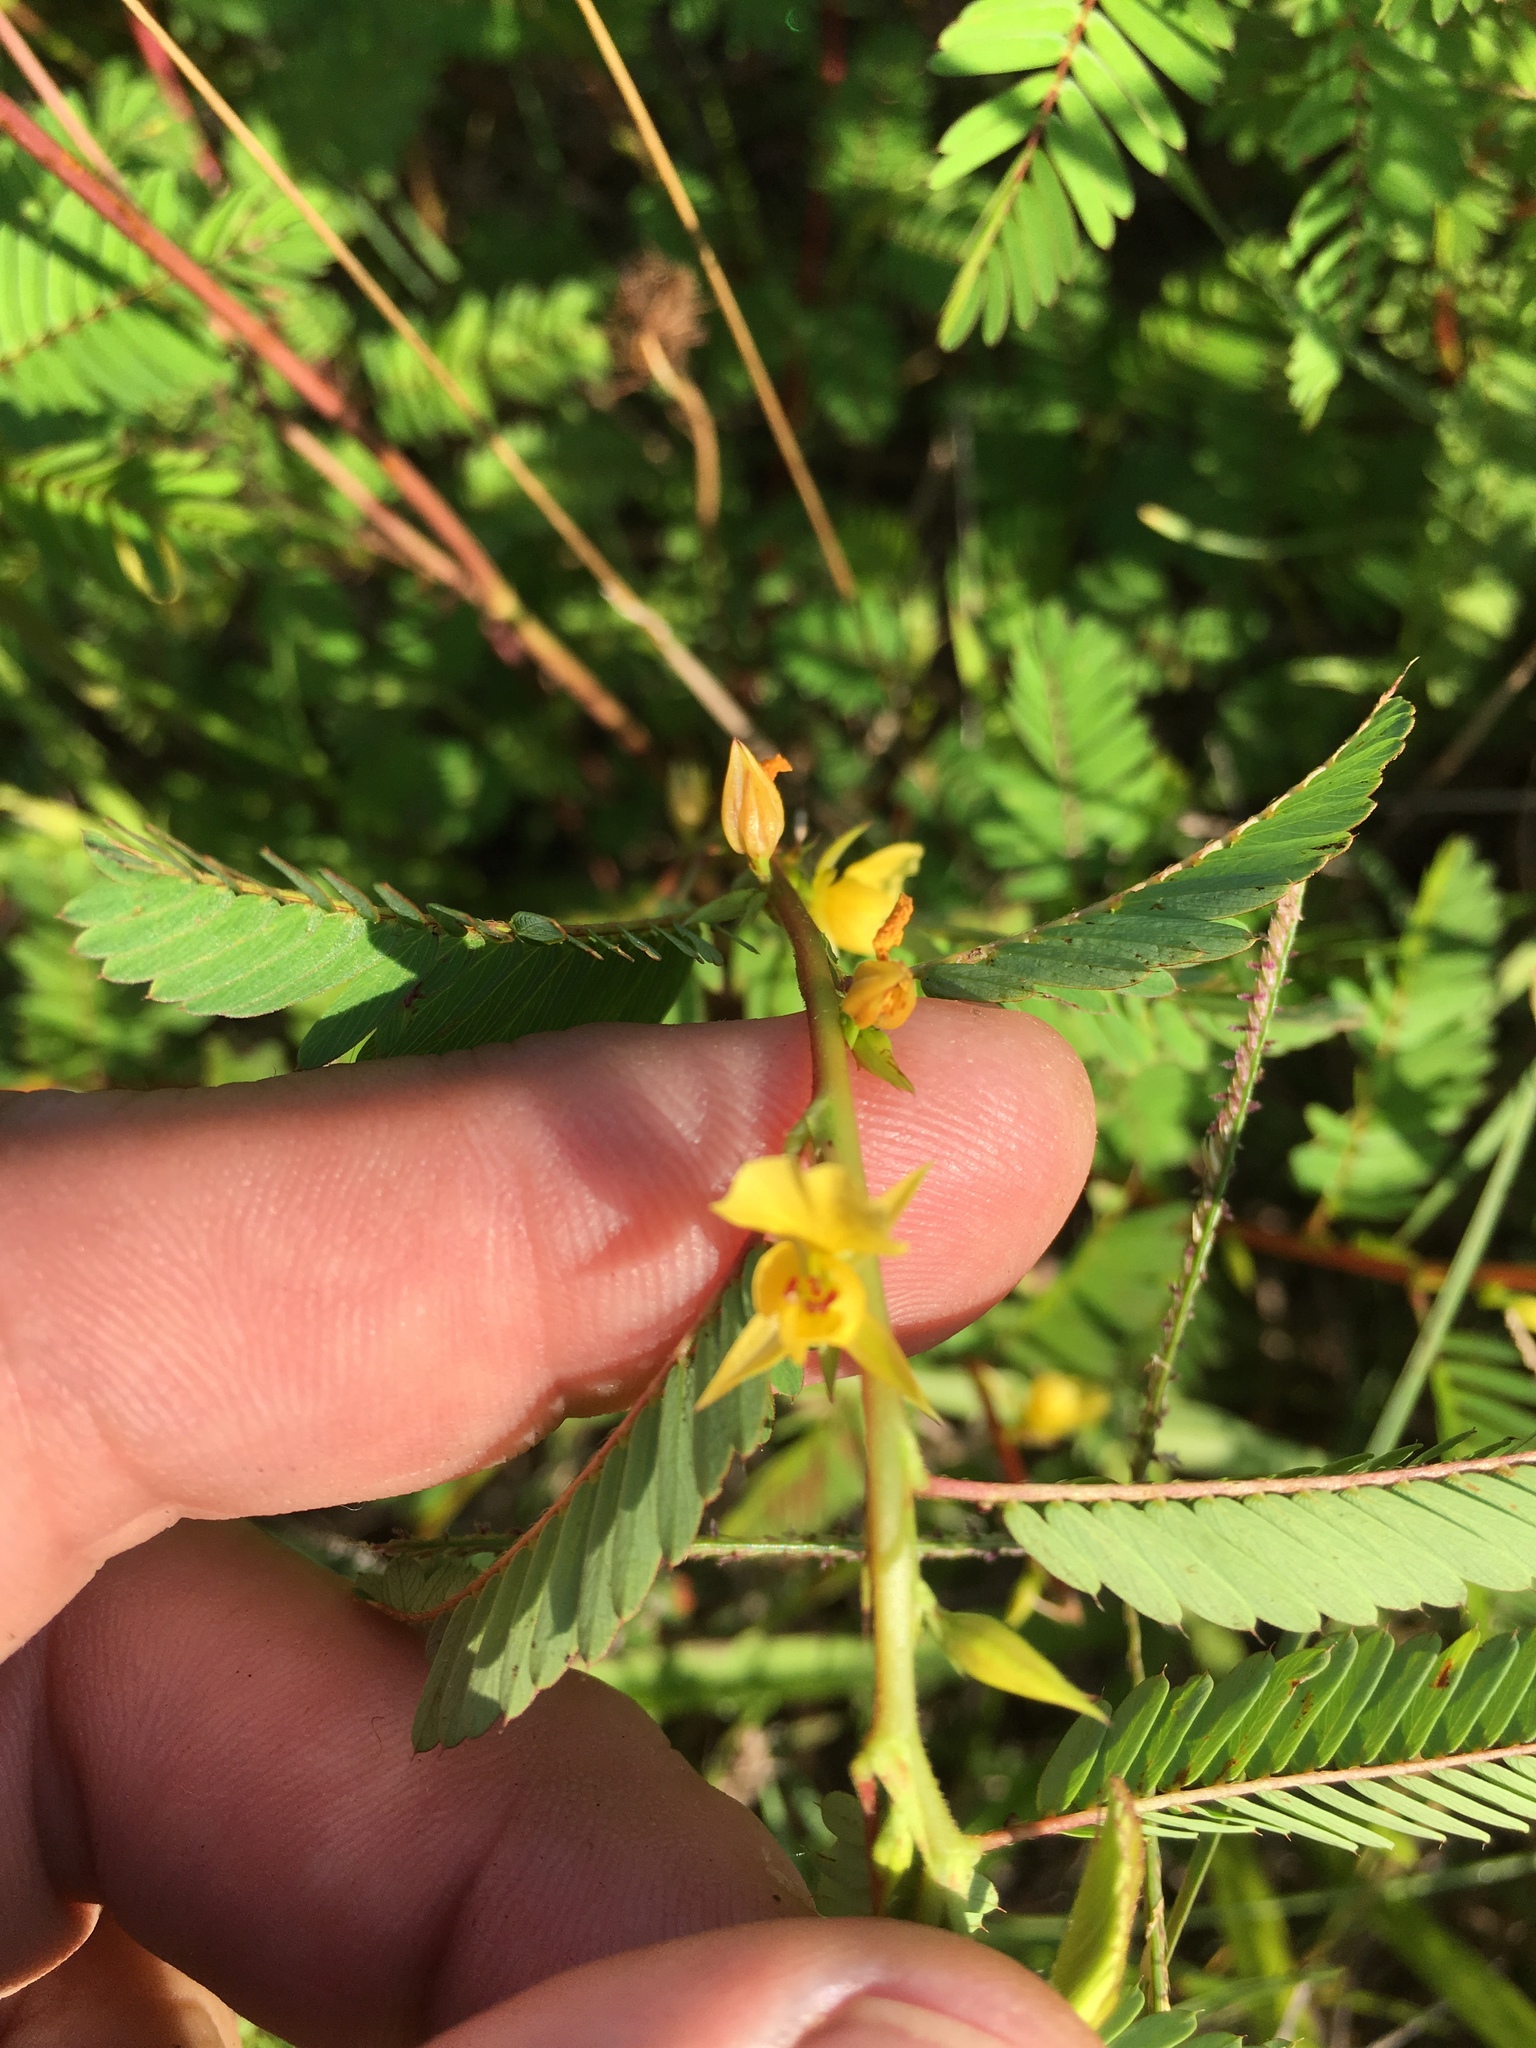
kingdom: Plantae
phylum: Tracheophyta
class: Magnoliopsida
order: Fabales
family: Fabaceae
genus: Chamaecrista
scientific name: Chamaecrista nictitans
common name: Sensitive cassia
